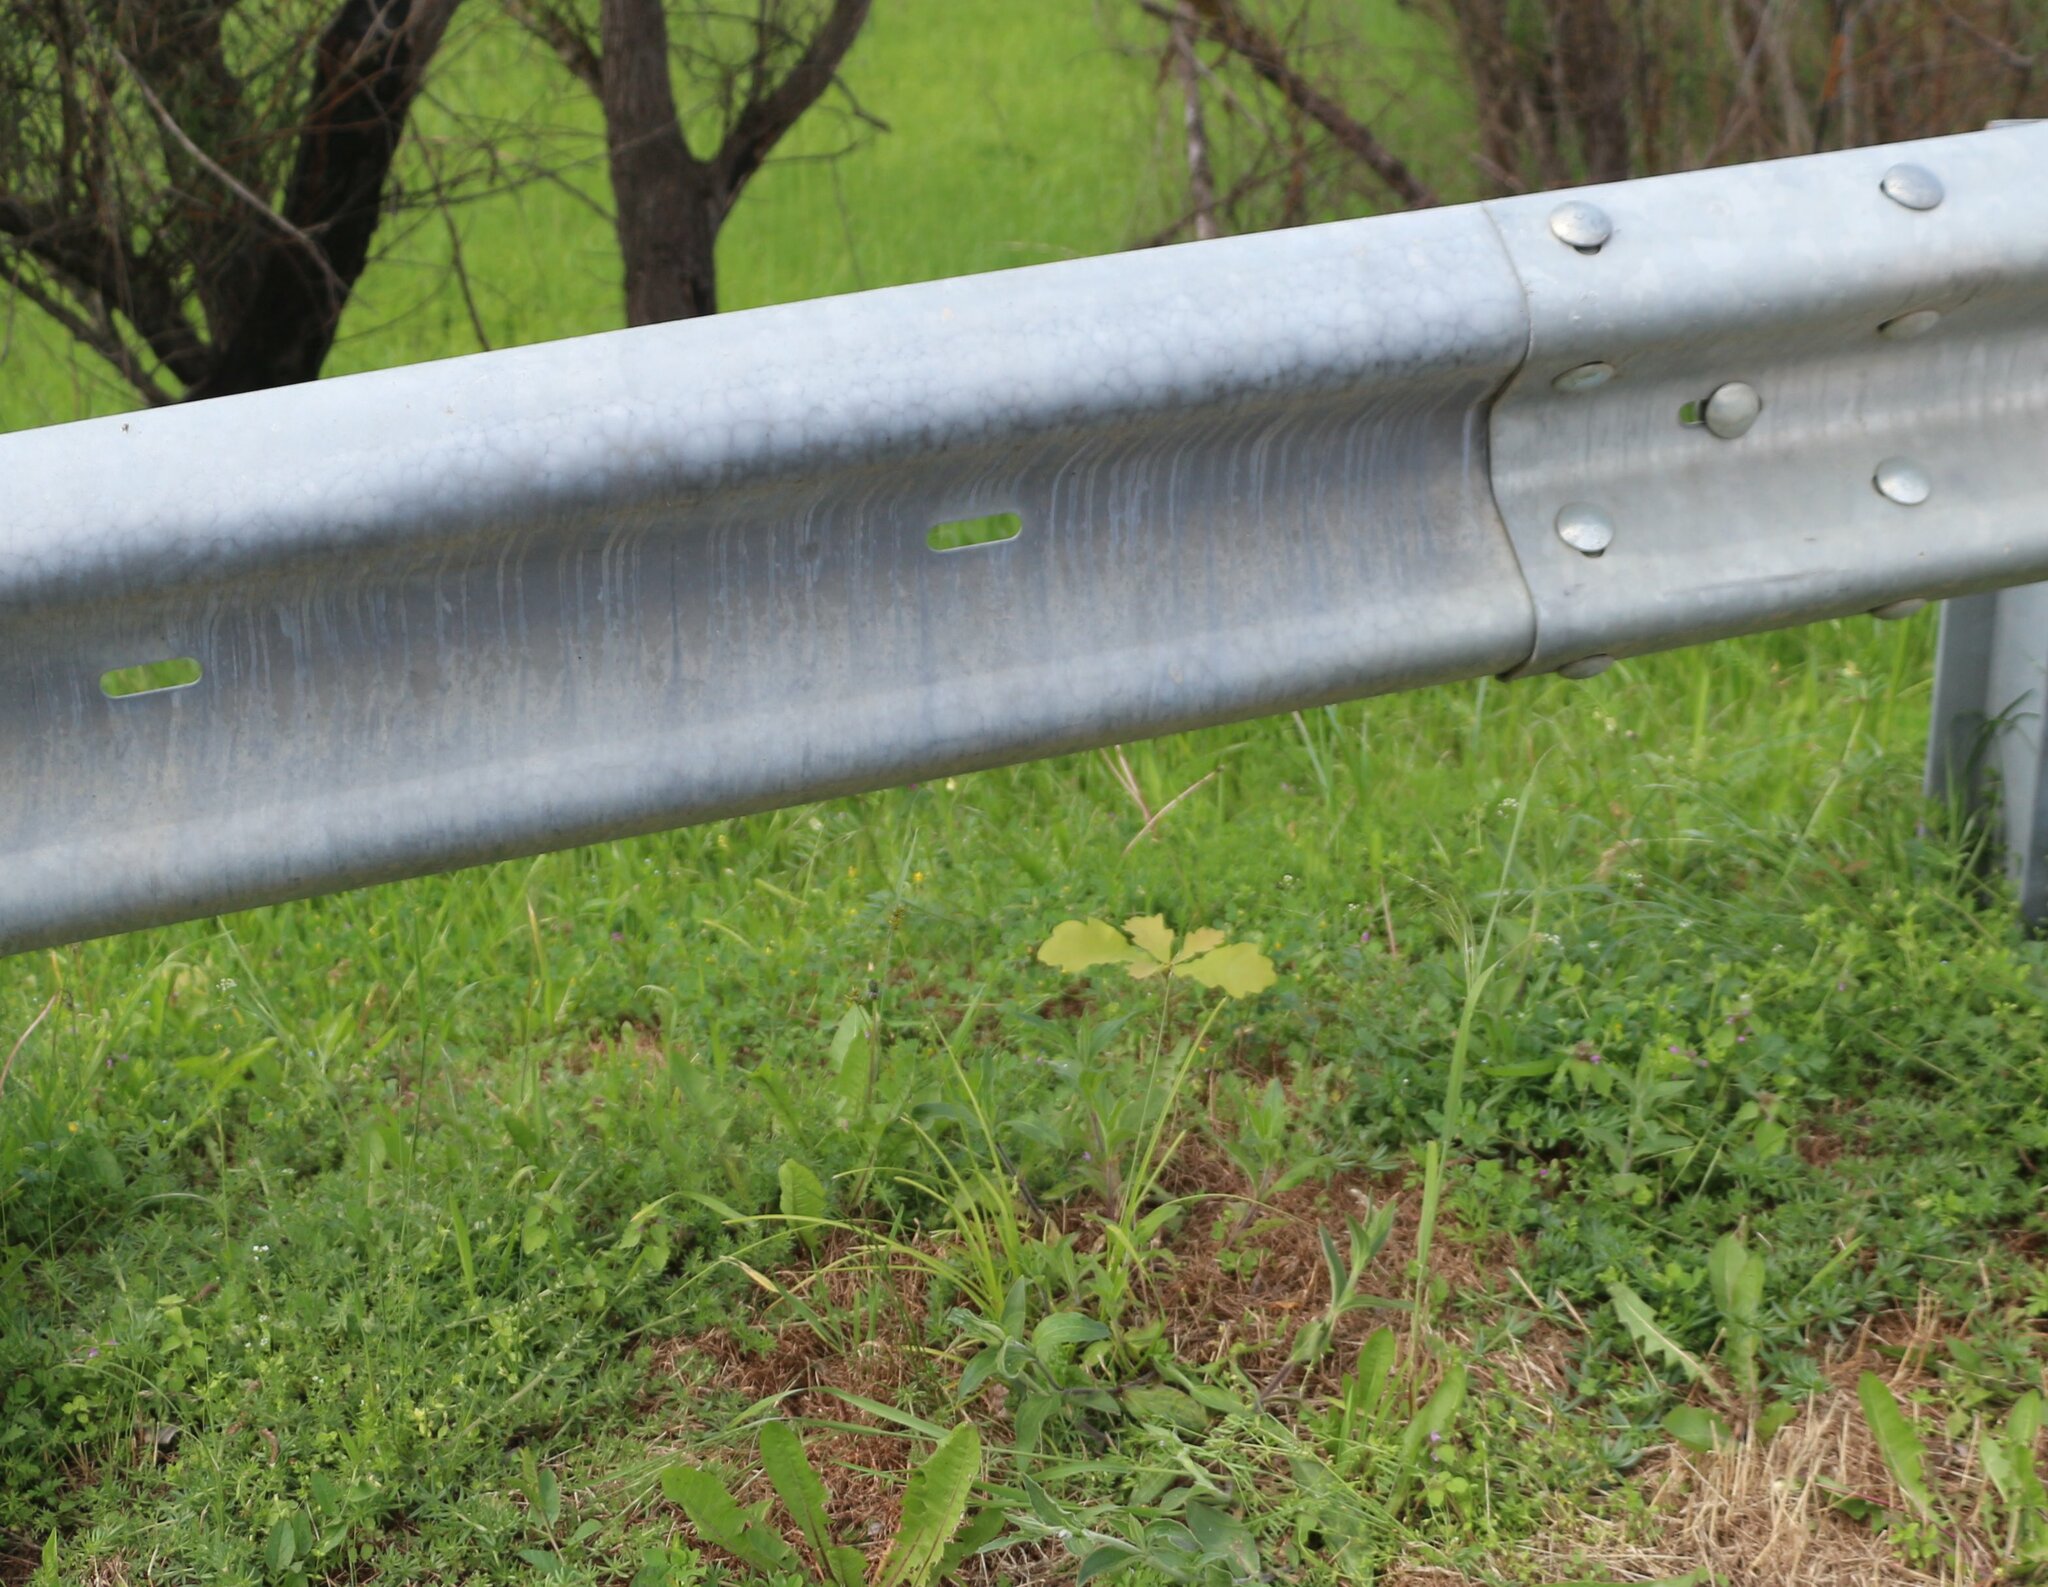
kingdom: Plantae
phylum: Tracheophyta
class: Magnoliopsida
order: Fagales
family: Fagaceae
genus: Quercus
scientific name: Quercus robur
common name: Pedunculate oak
